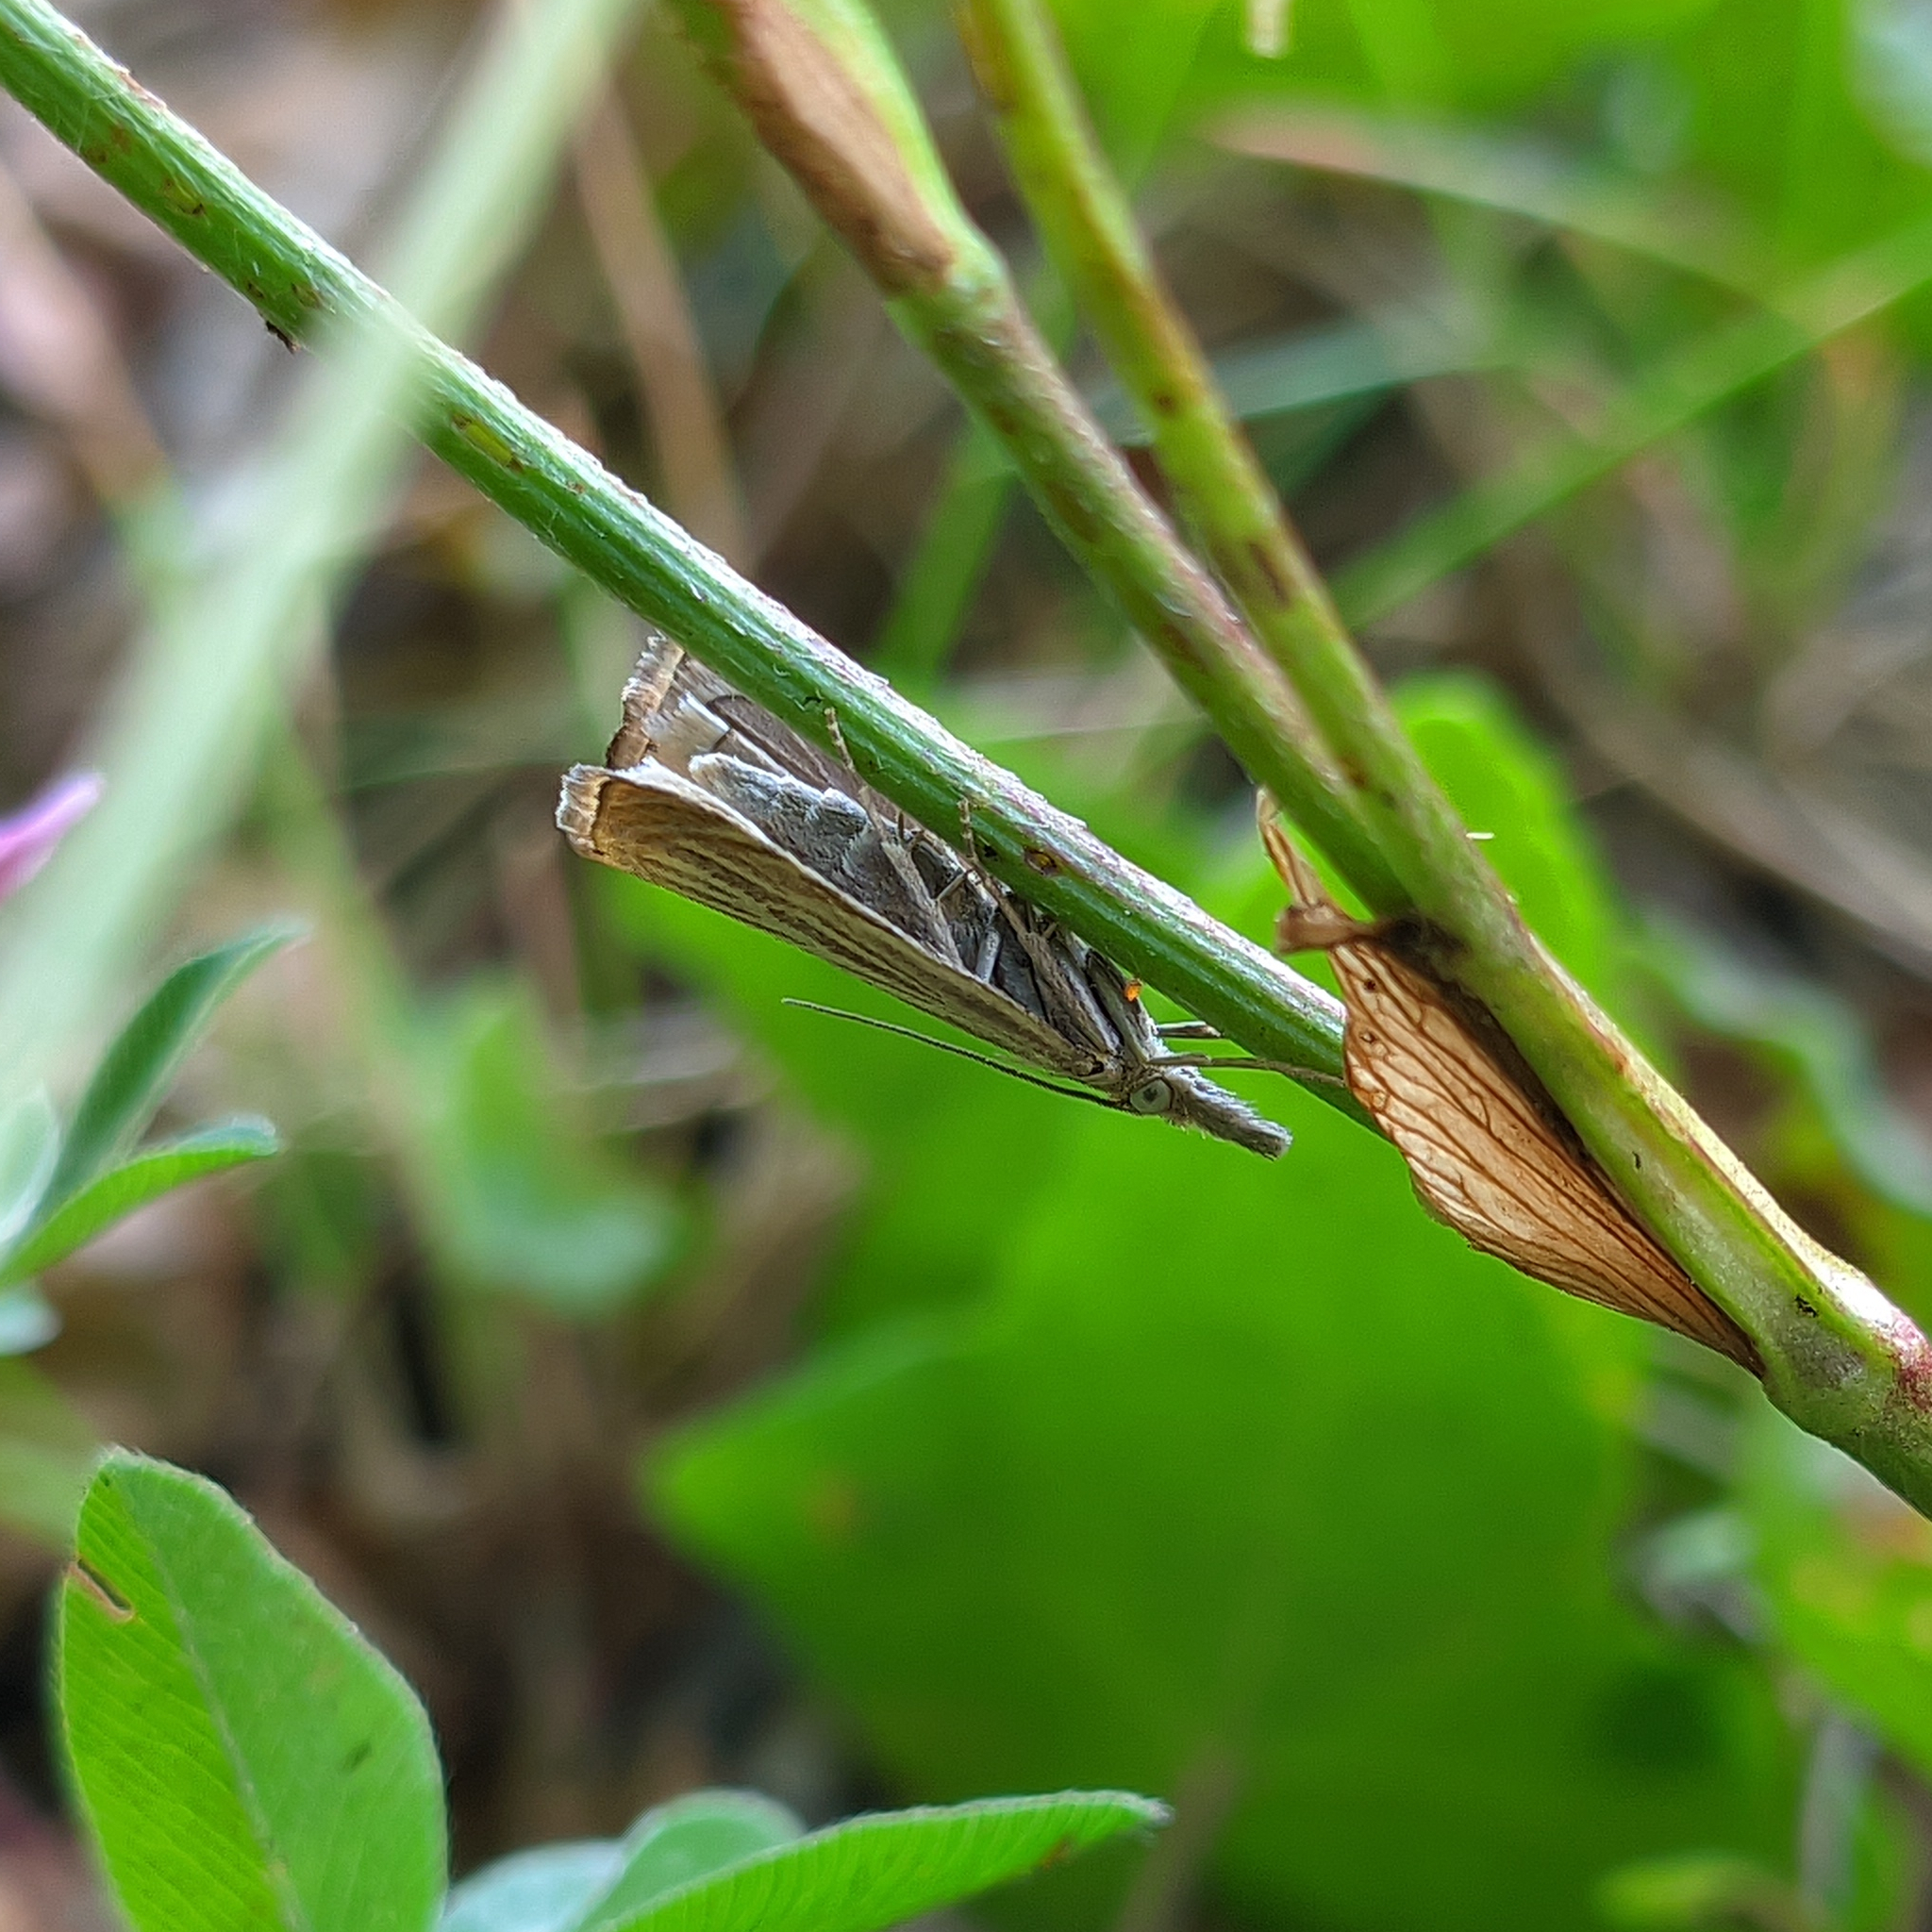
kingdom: Animalia
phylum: Arthropoda
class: Insecta
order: Lepidoptera
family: Crambidae
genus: Chrysoteuchia
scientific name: Chrysoteuchia culmella
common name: Garden grass-veneer
